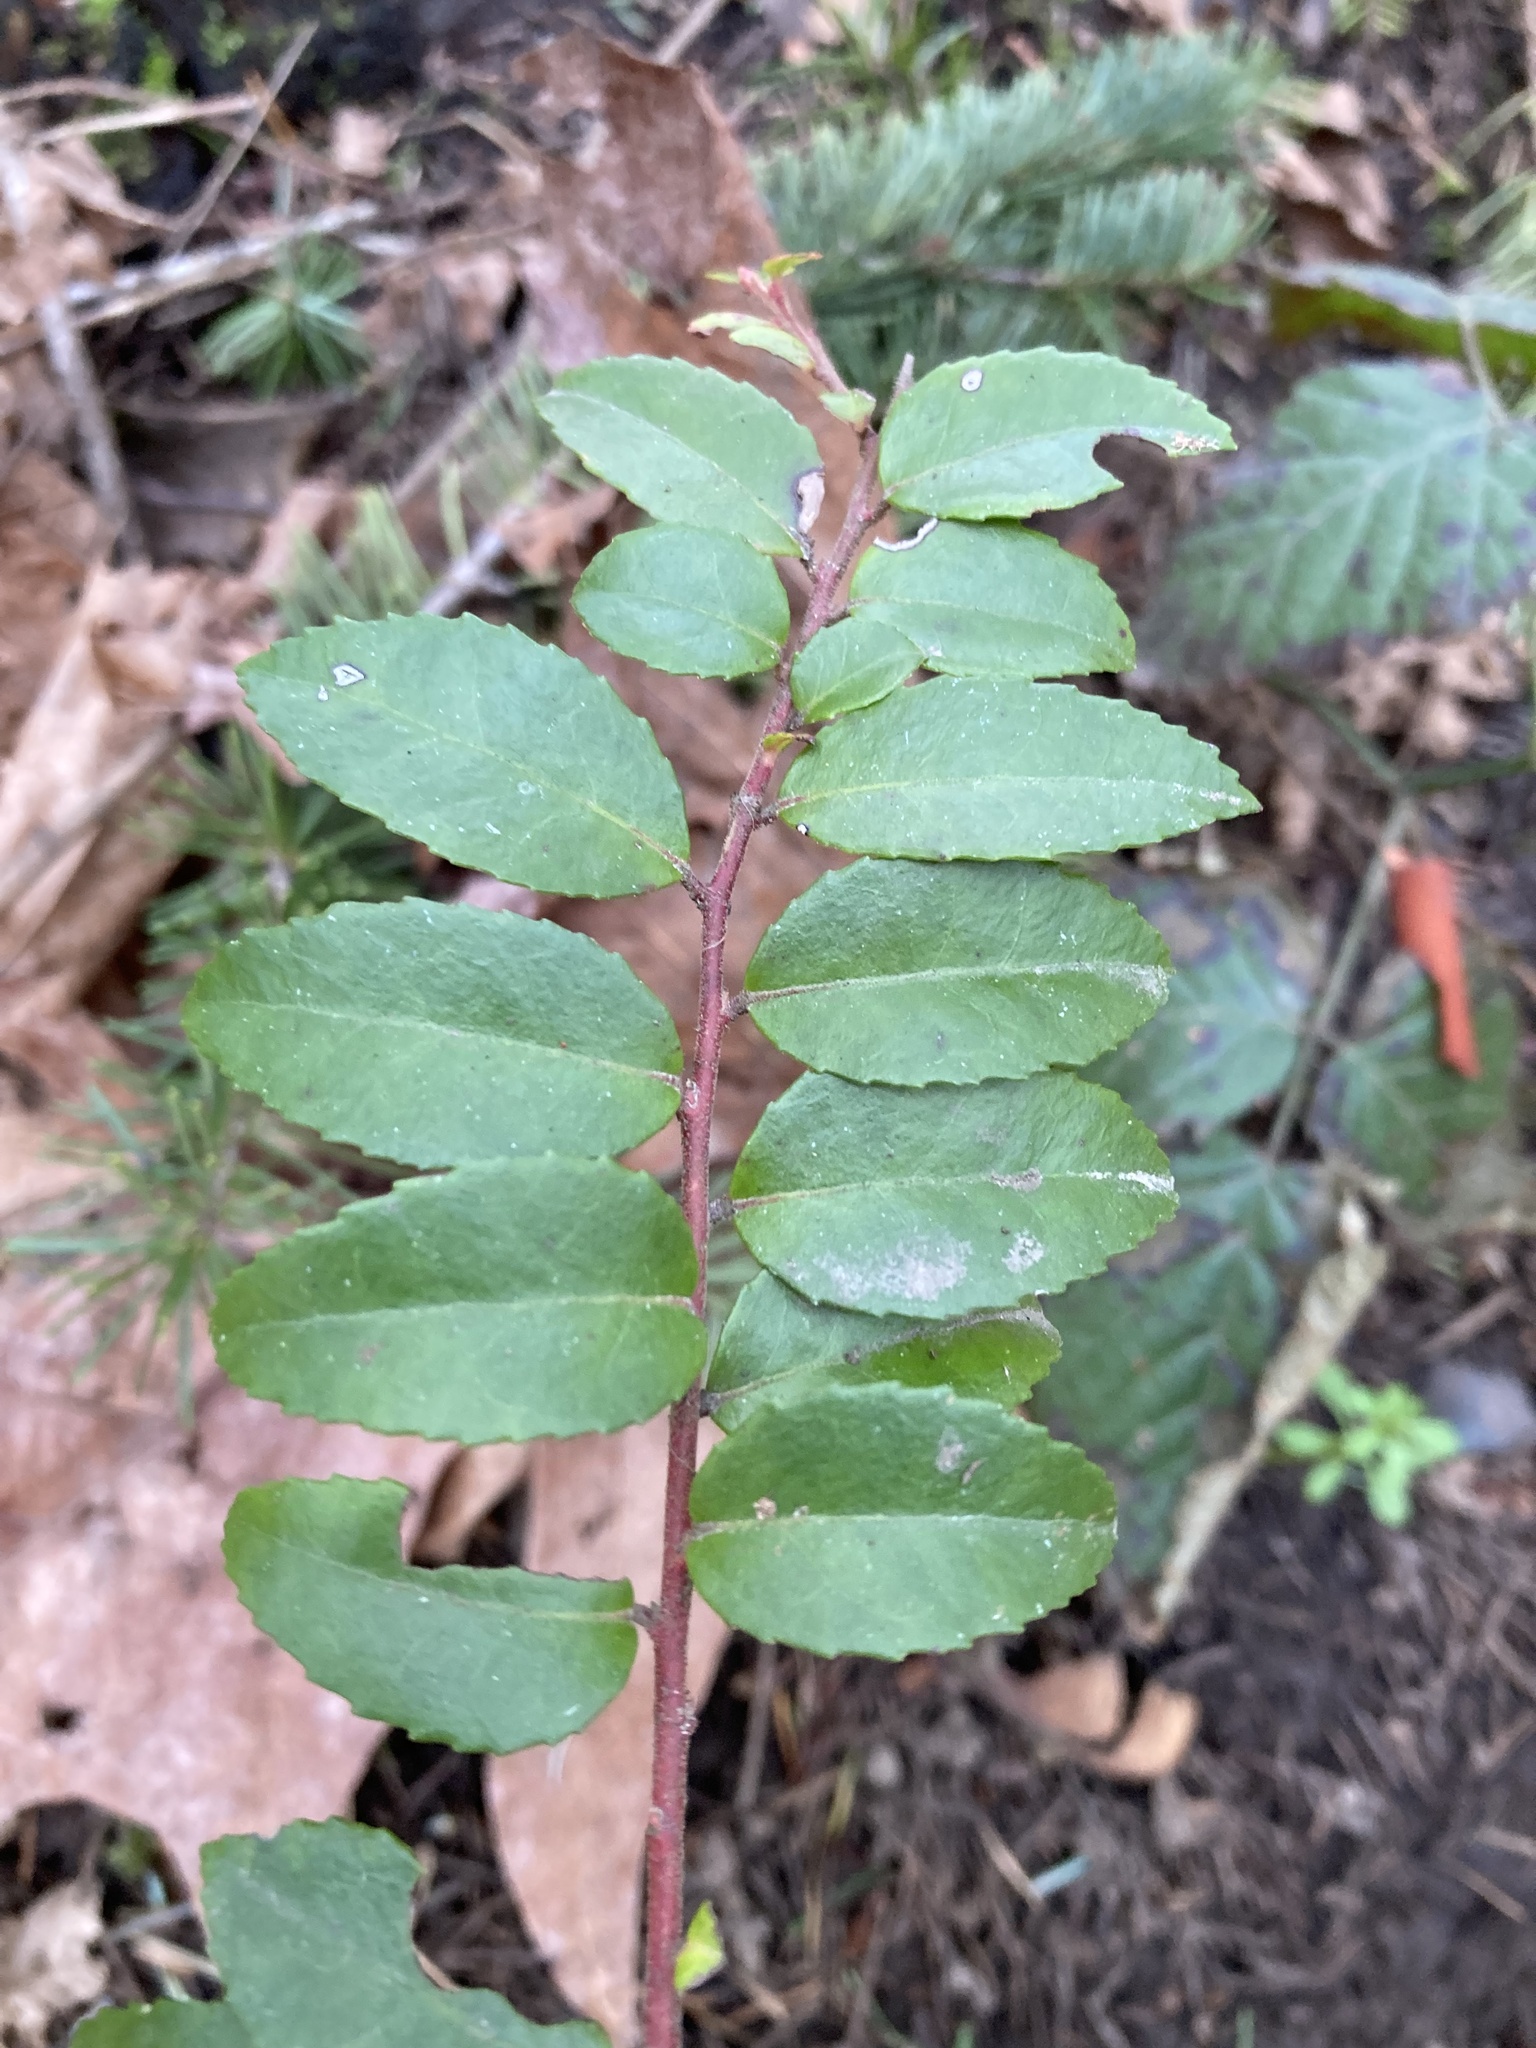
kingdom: Plantae
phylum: Tracheophyta
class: Magnoliopsida
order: Ericales
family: Ericaceae
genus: Vaccinium
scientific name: Vaccinium ovatum
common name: California-huckleberry
